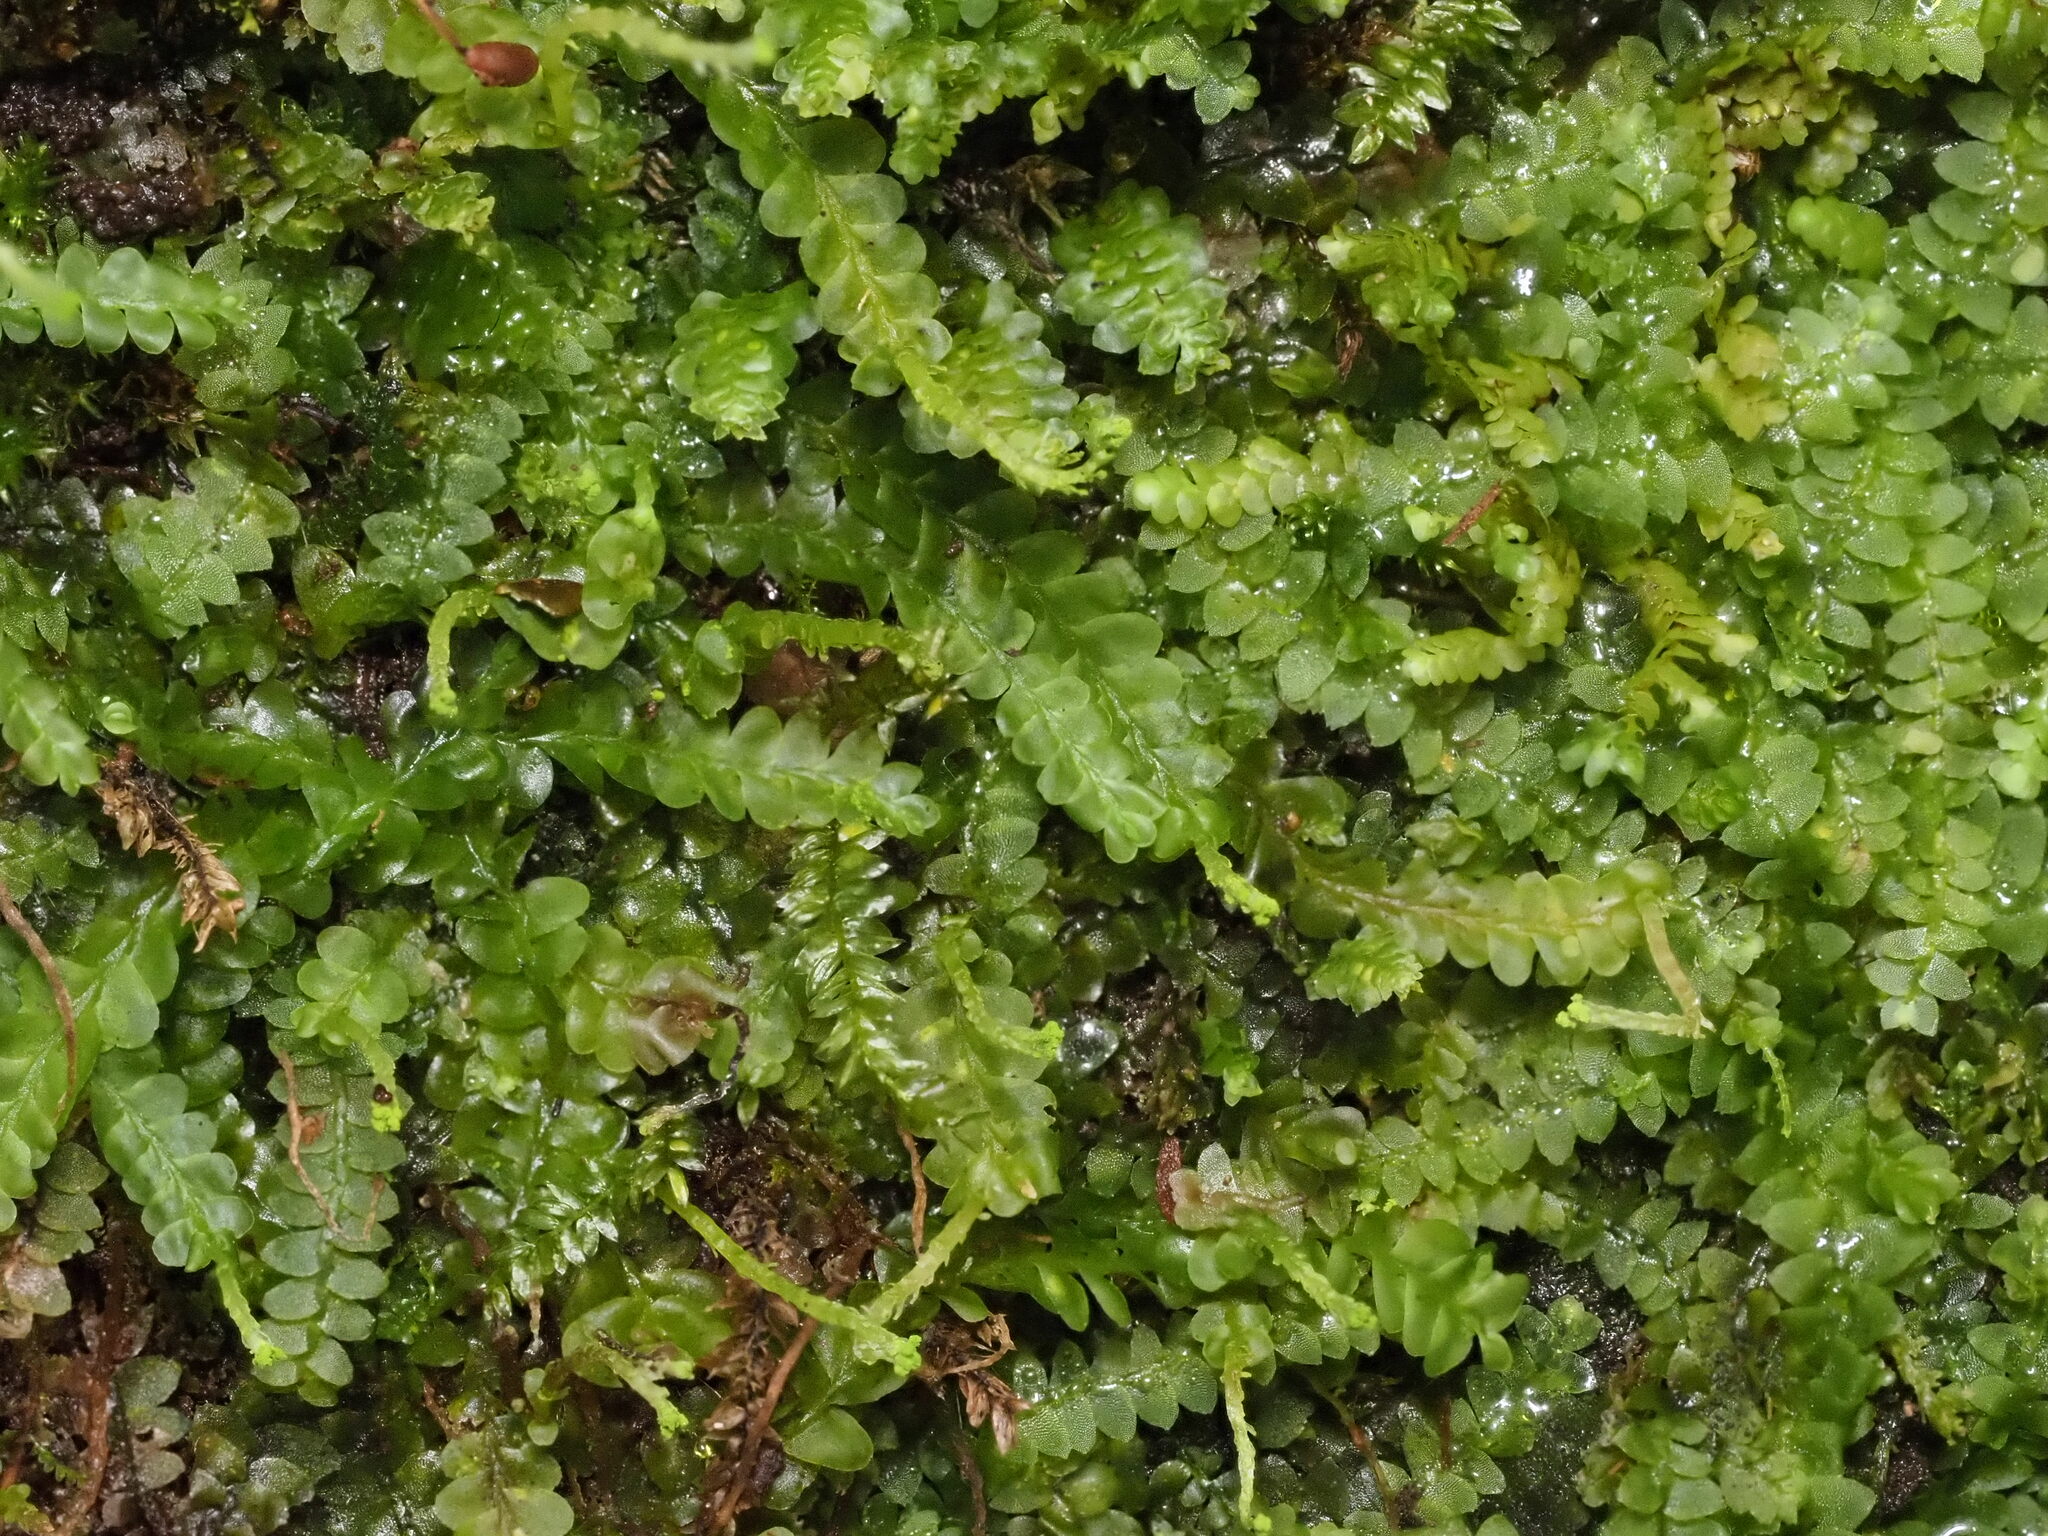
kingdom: Plantae
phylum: Marchantiophyta
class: Jungermanniopsida
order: Jungermanniales
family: Calypogeiaceae
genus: Calypogeia
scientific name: Calypogeia tosana
